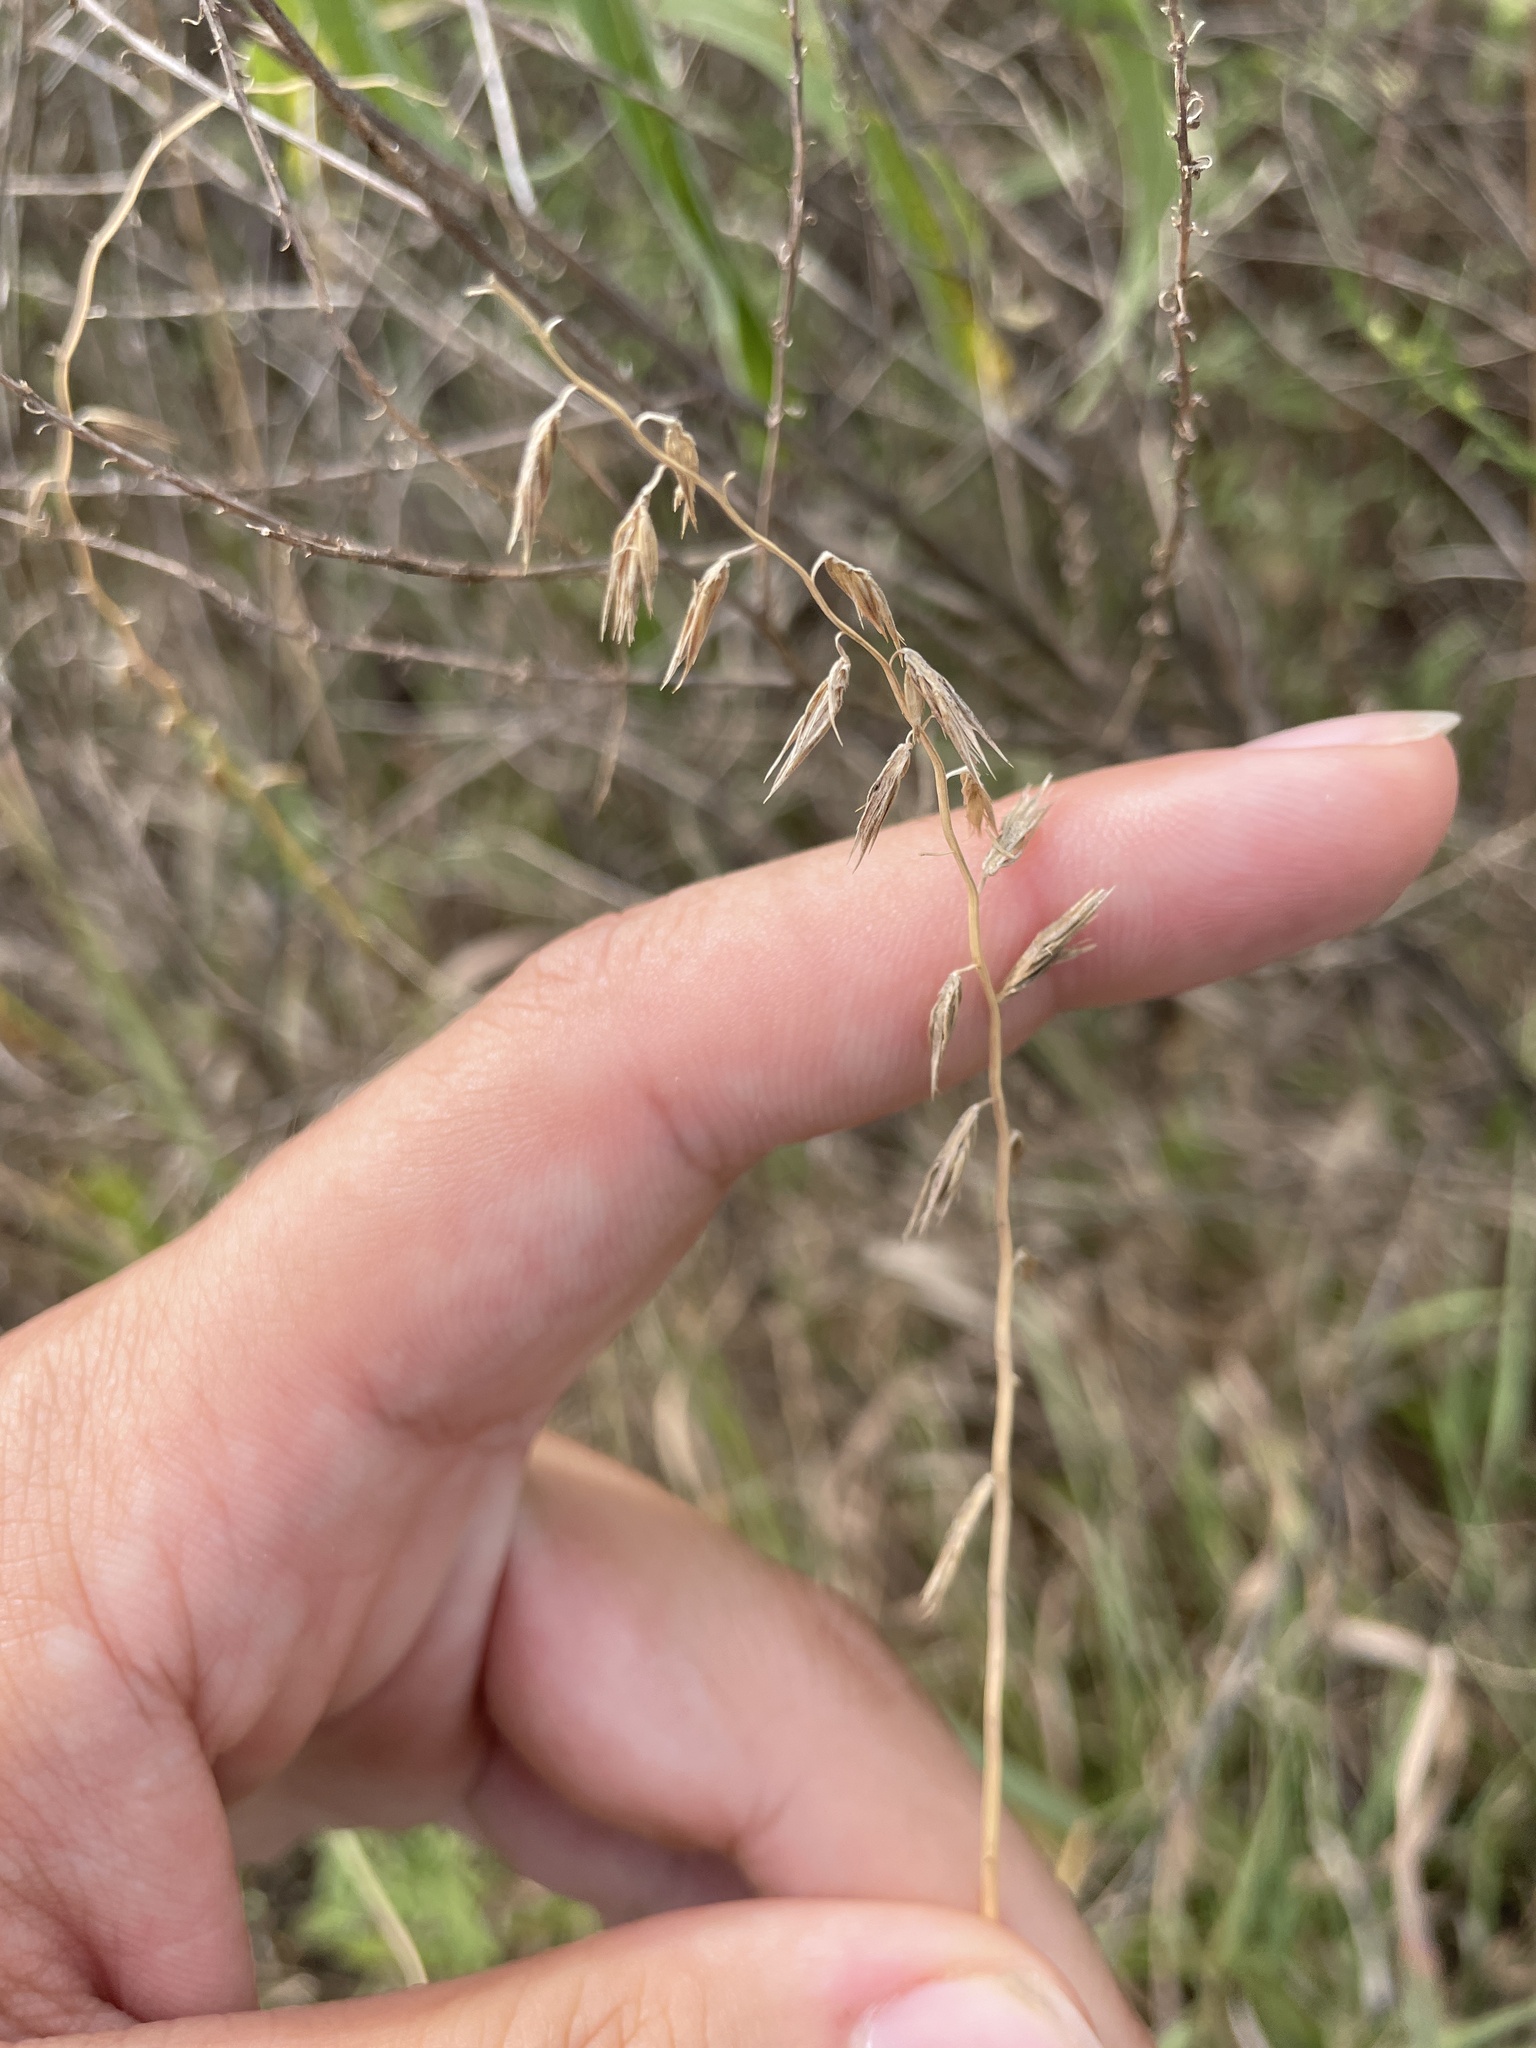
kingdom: Plantae
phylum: Tracheophyta
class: Liliopsida
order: Poales
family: Poaceae
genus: Bouteloua
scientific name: Bouteloua curtipendula
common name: Side-oats grama
